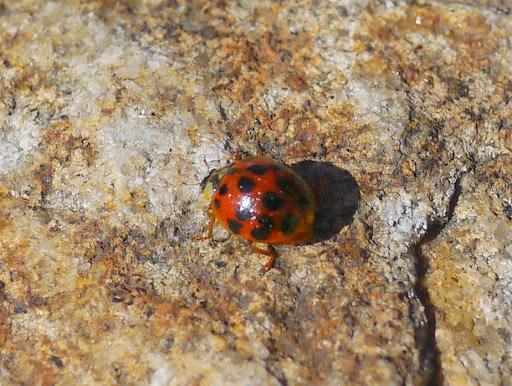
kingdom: Animalia
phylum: Arthropoda
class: Insecta
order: Coleoptera
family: Coccinellidae
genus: Harmonia
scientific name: Harmonia axyridis
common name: Harlequin ladybird
